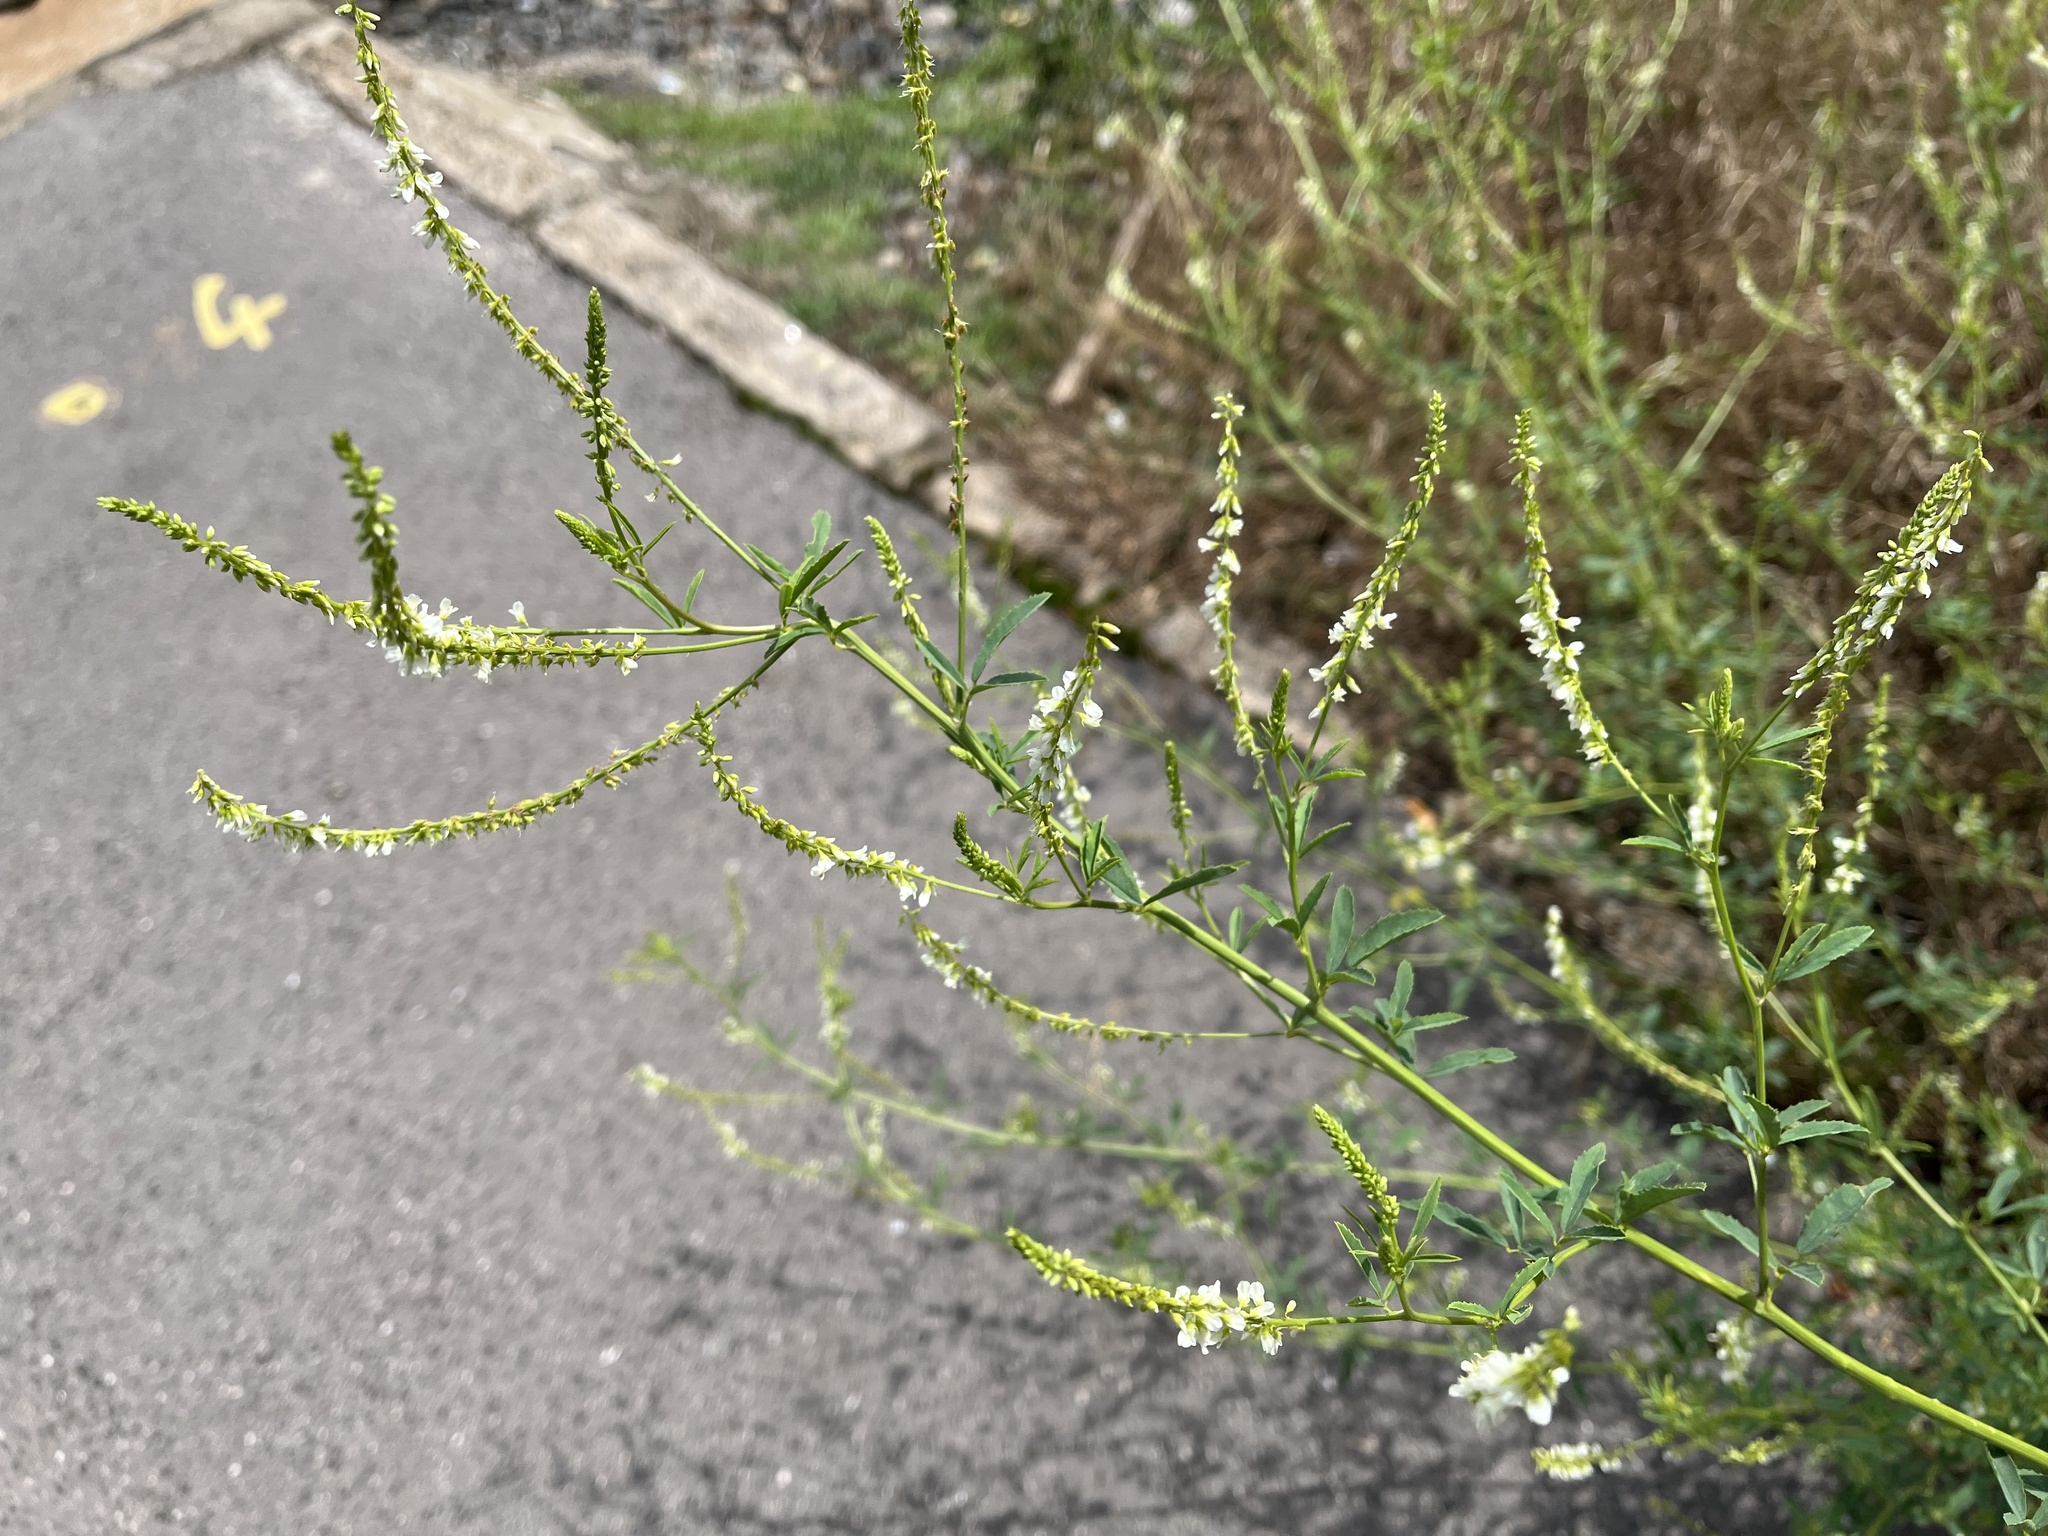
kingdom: Plantae
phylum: Tracheophyta
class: Magnoliopsida
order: Fabales
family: Fabaceae
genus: Melilotus
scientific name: Melilotus albus
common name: White melilot
